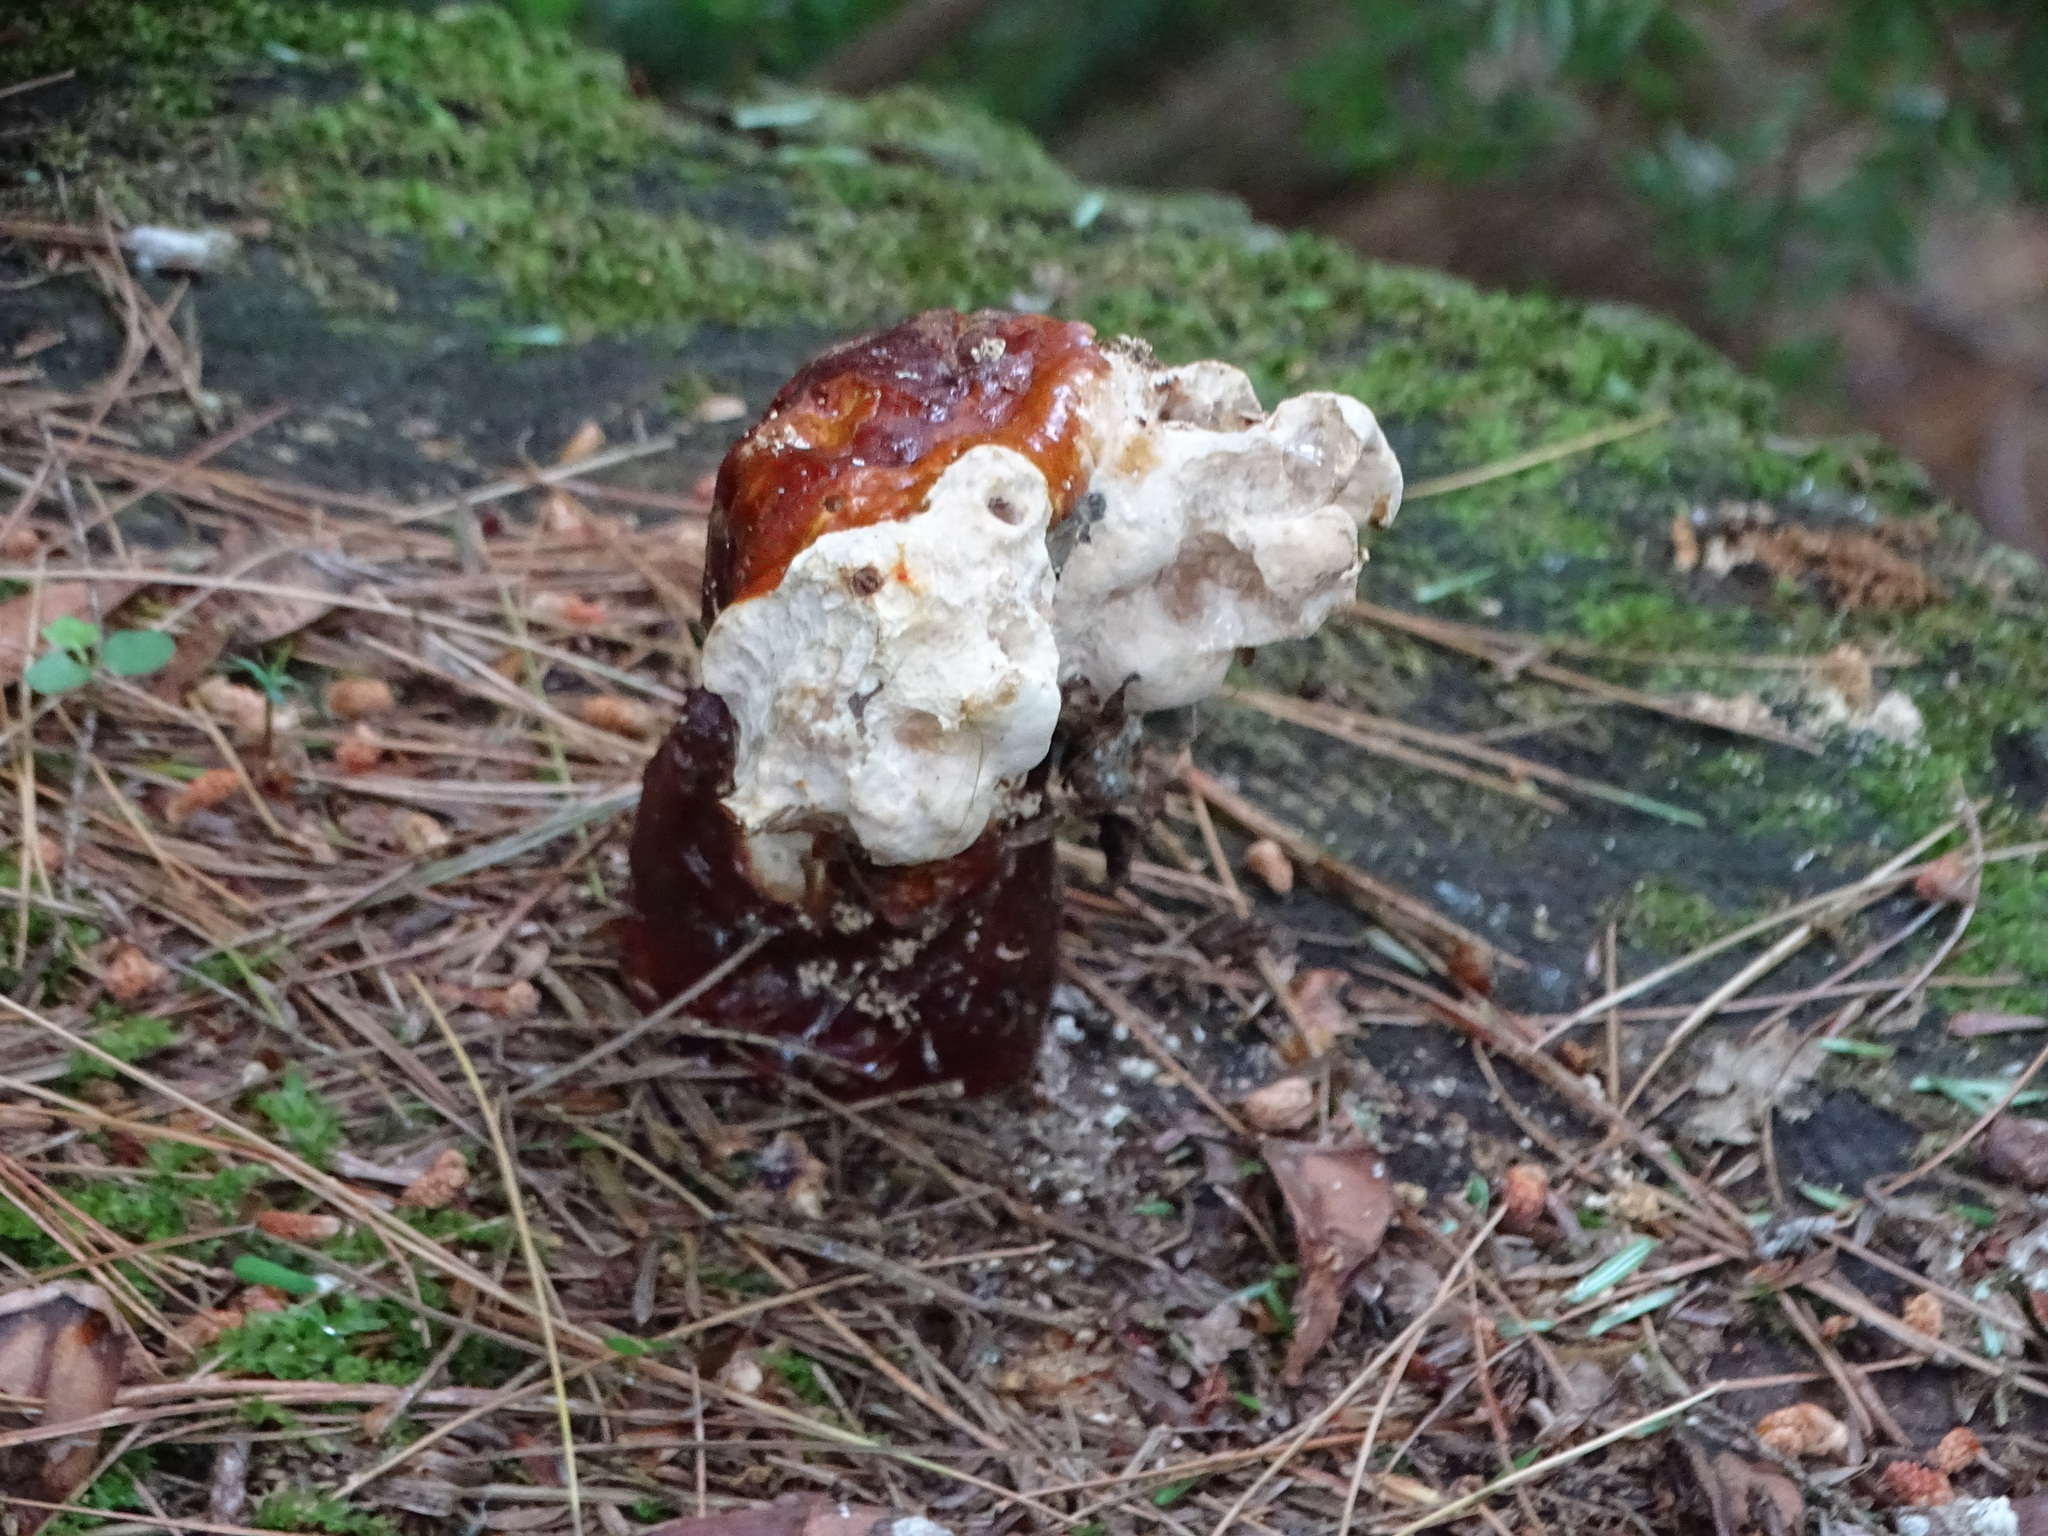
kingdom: Fungi
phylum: Basidiomycota
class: Agaricomycetes
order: Polyporales
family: Polyporaceae
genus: Ganoderma
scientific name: Ganoderma tsugae
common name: Hemlock varnish shelf
